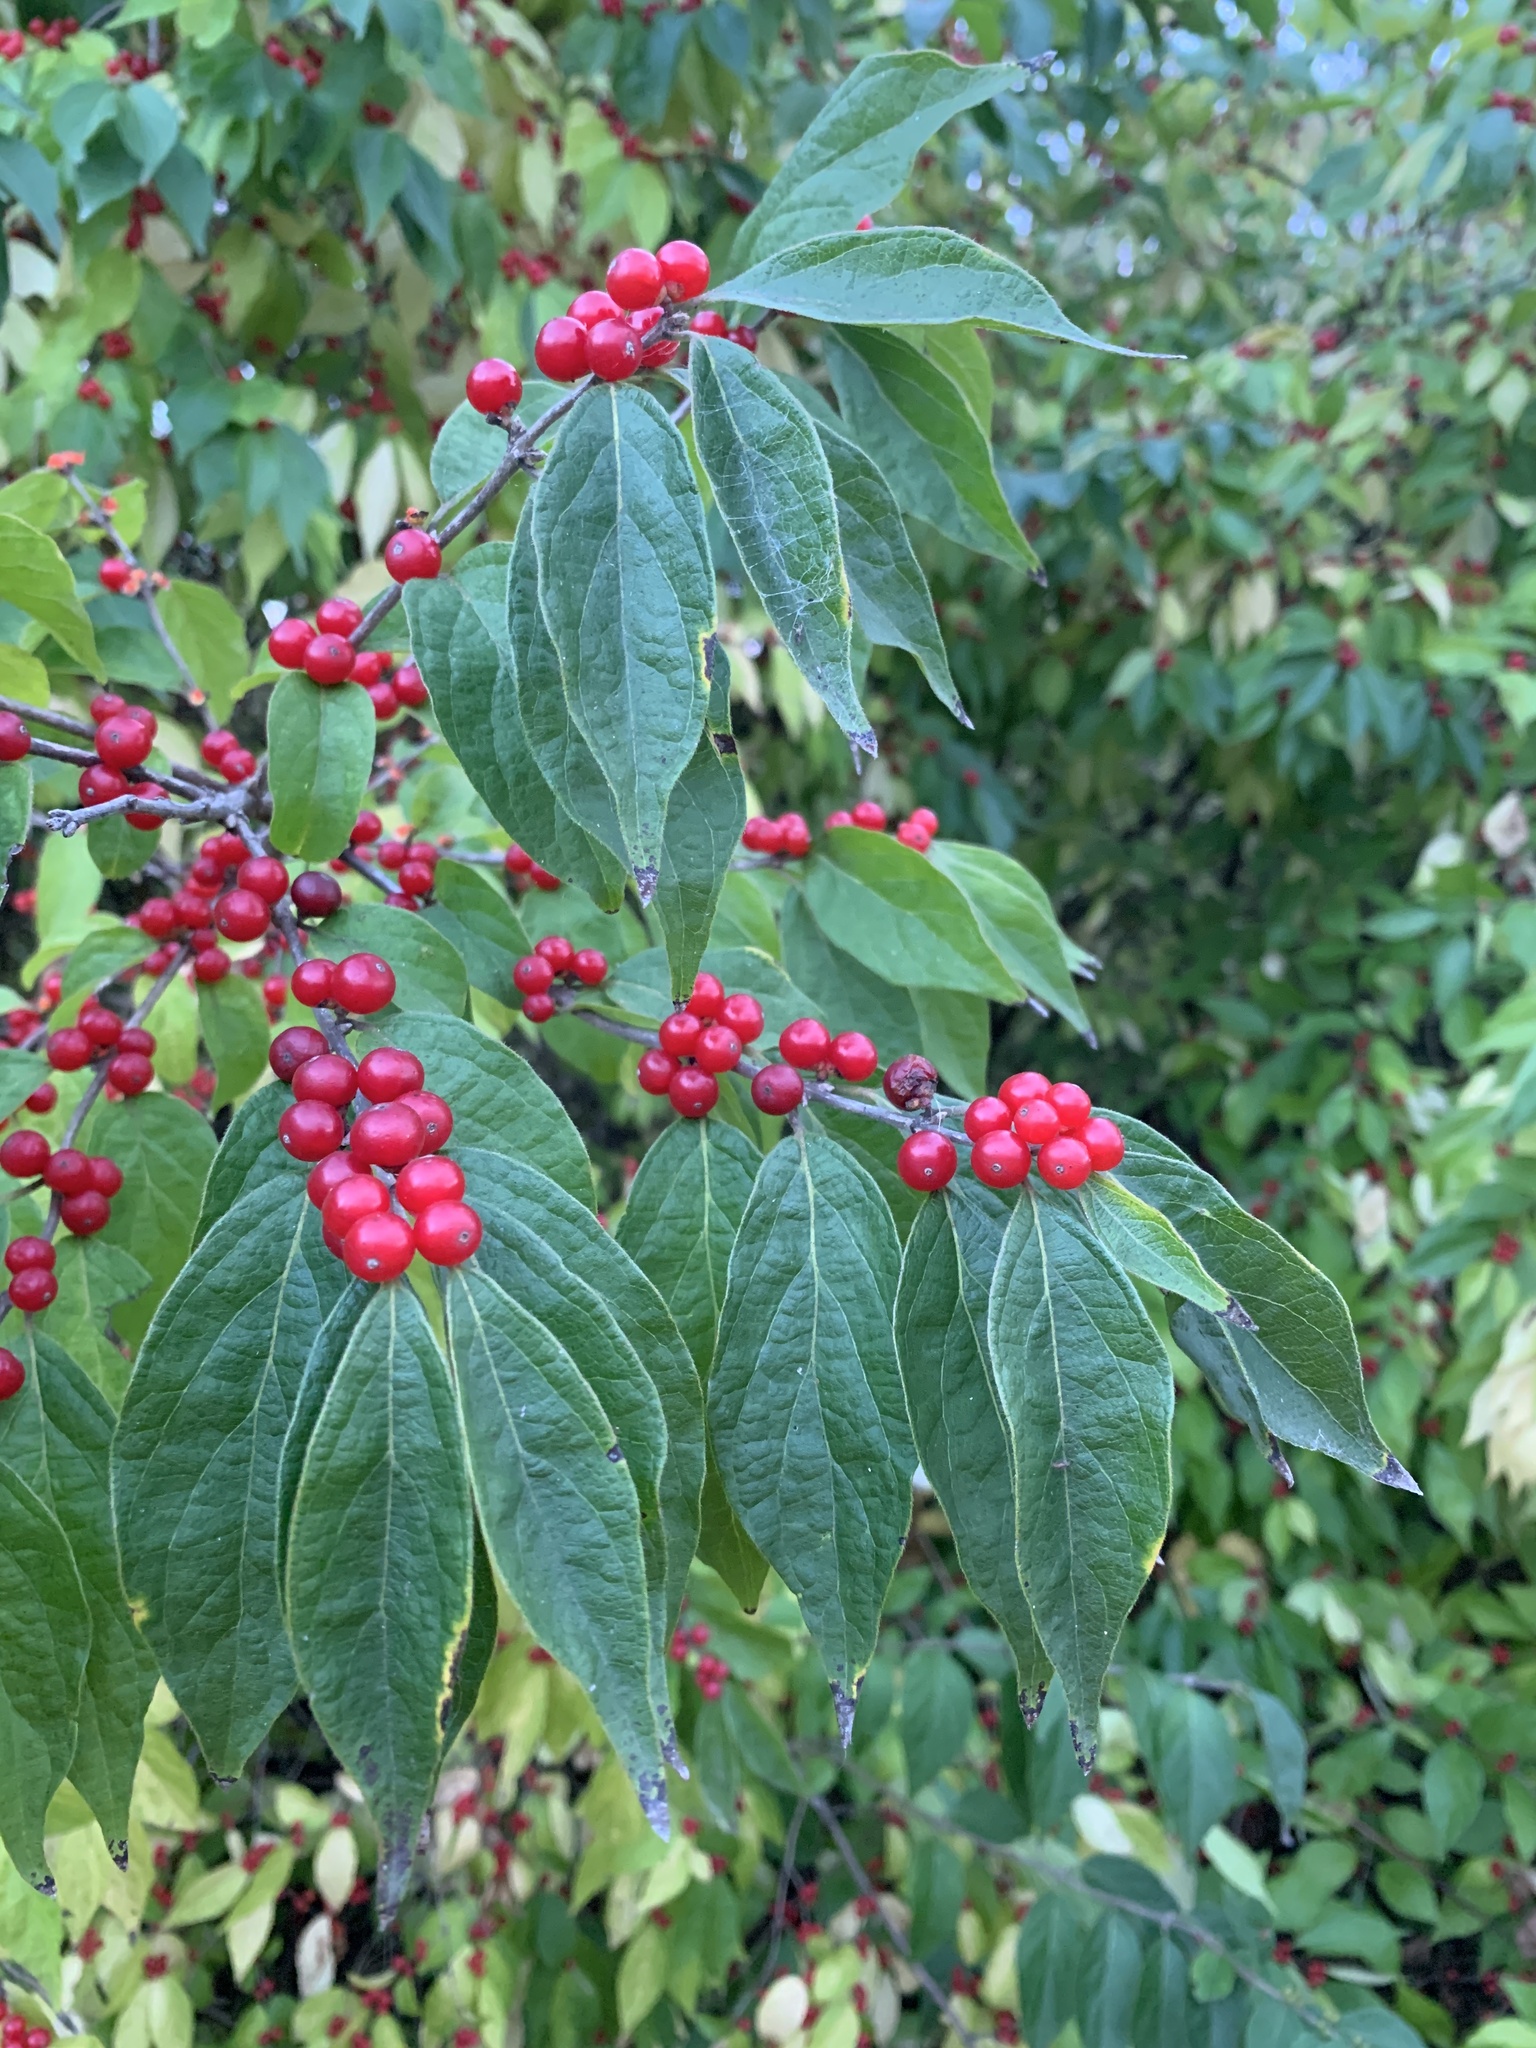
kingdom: Plantae
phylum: Tracheophyta
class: Magnoliopsida
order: Dipsacales
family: Caprifoliaceae
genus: Lonicera
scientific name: Lonicera maackii
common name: Amur honeysuckle
